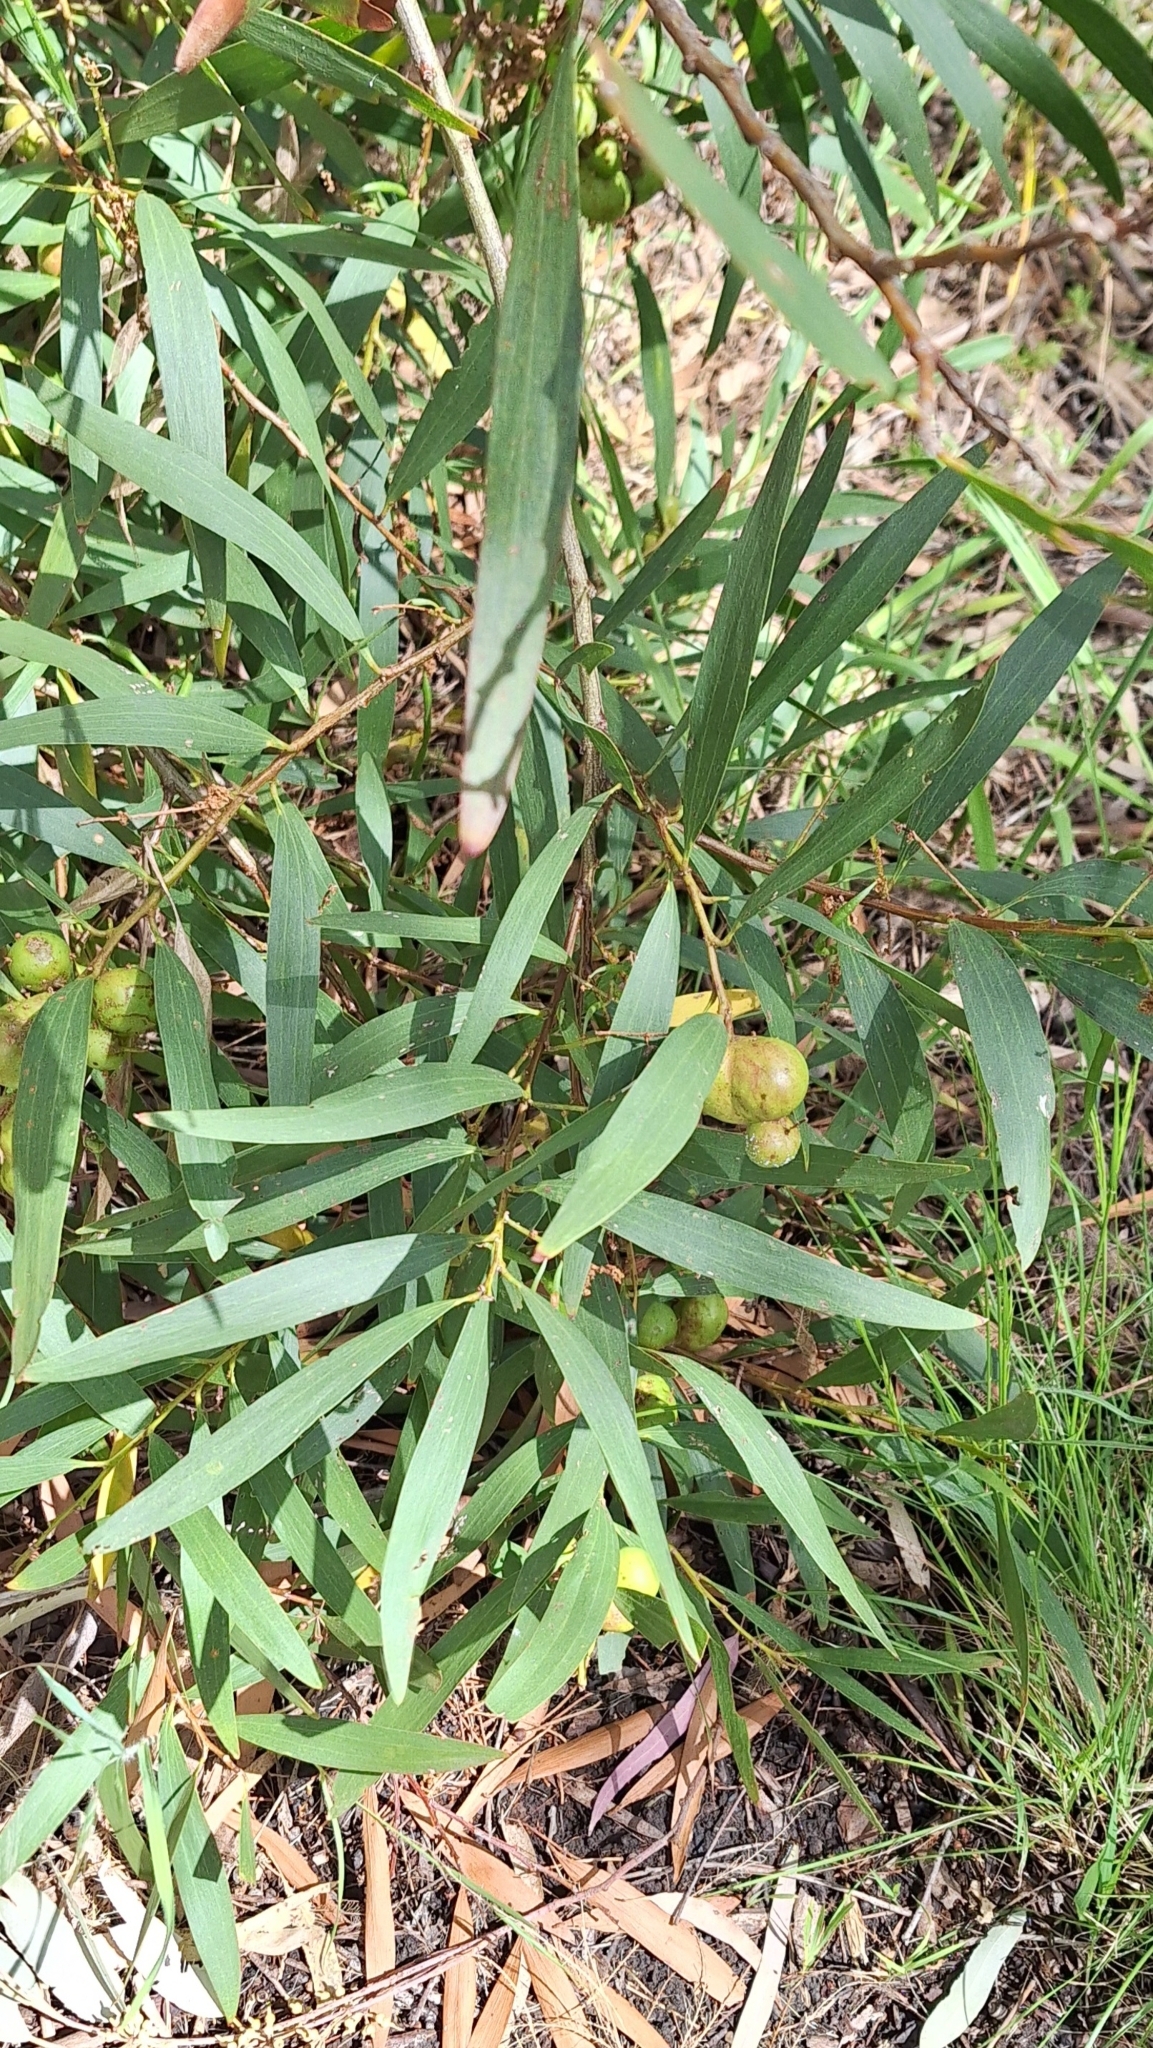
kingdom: Plantae
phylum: Tracheophyta
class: Magnoliopsida
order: Fabales
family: Fabaceae
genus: Acacia
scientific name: Acacia longifolia
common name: Sydney golden wattle
